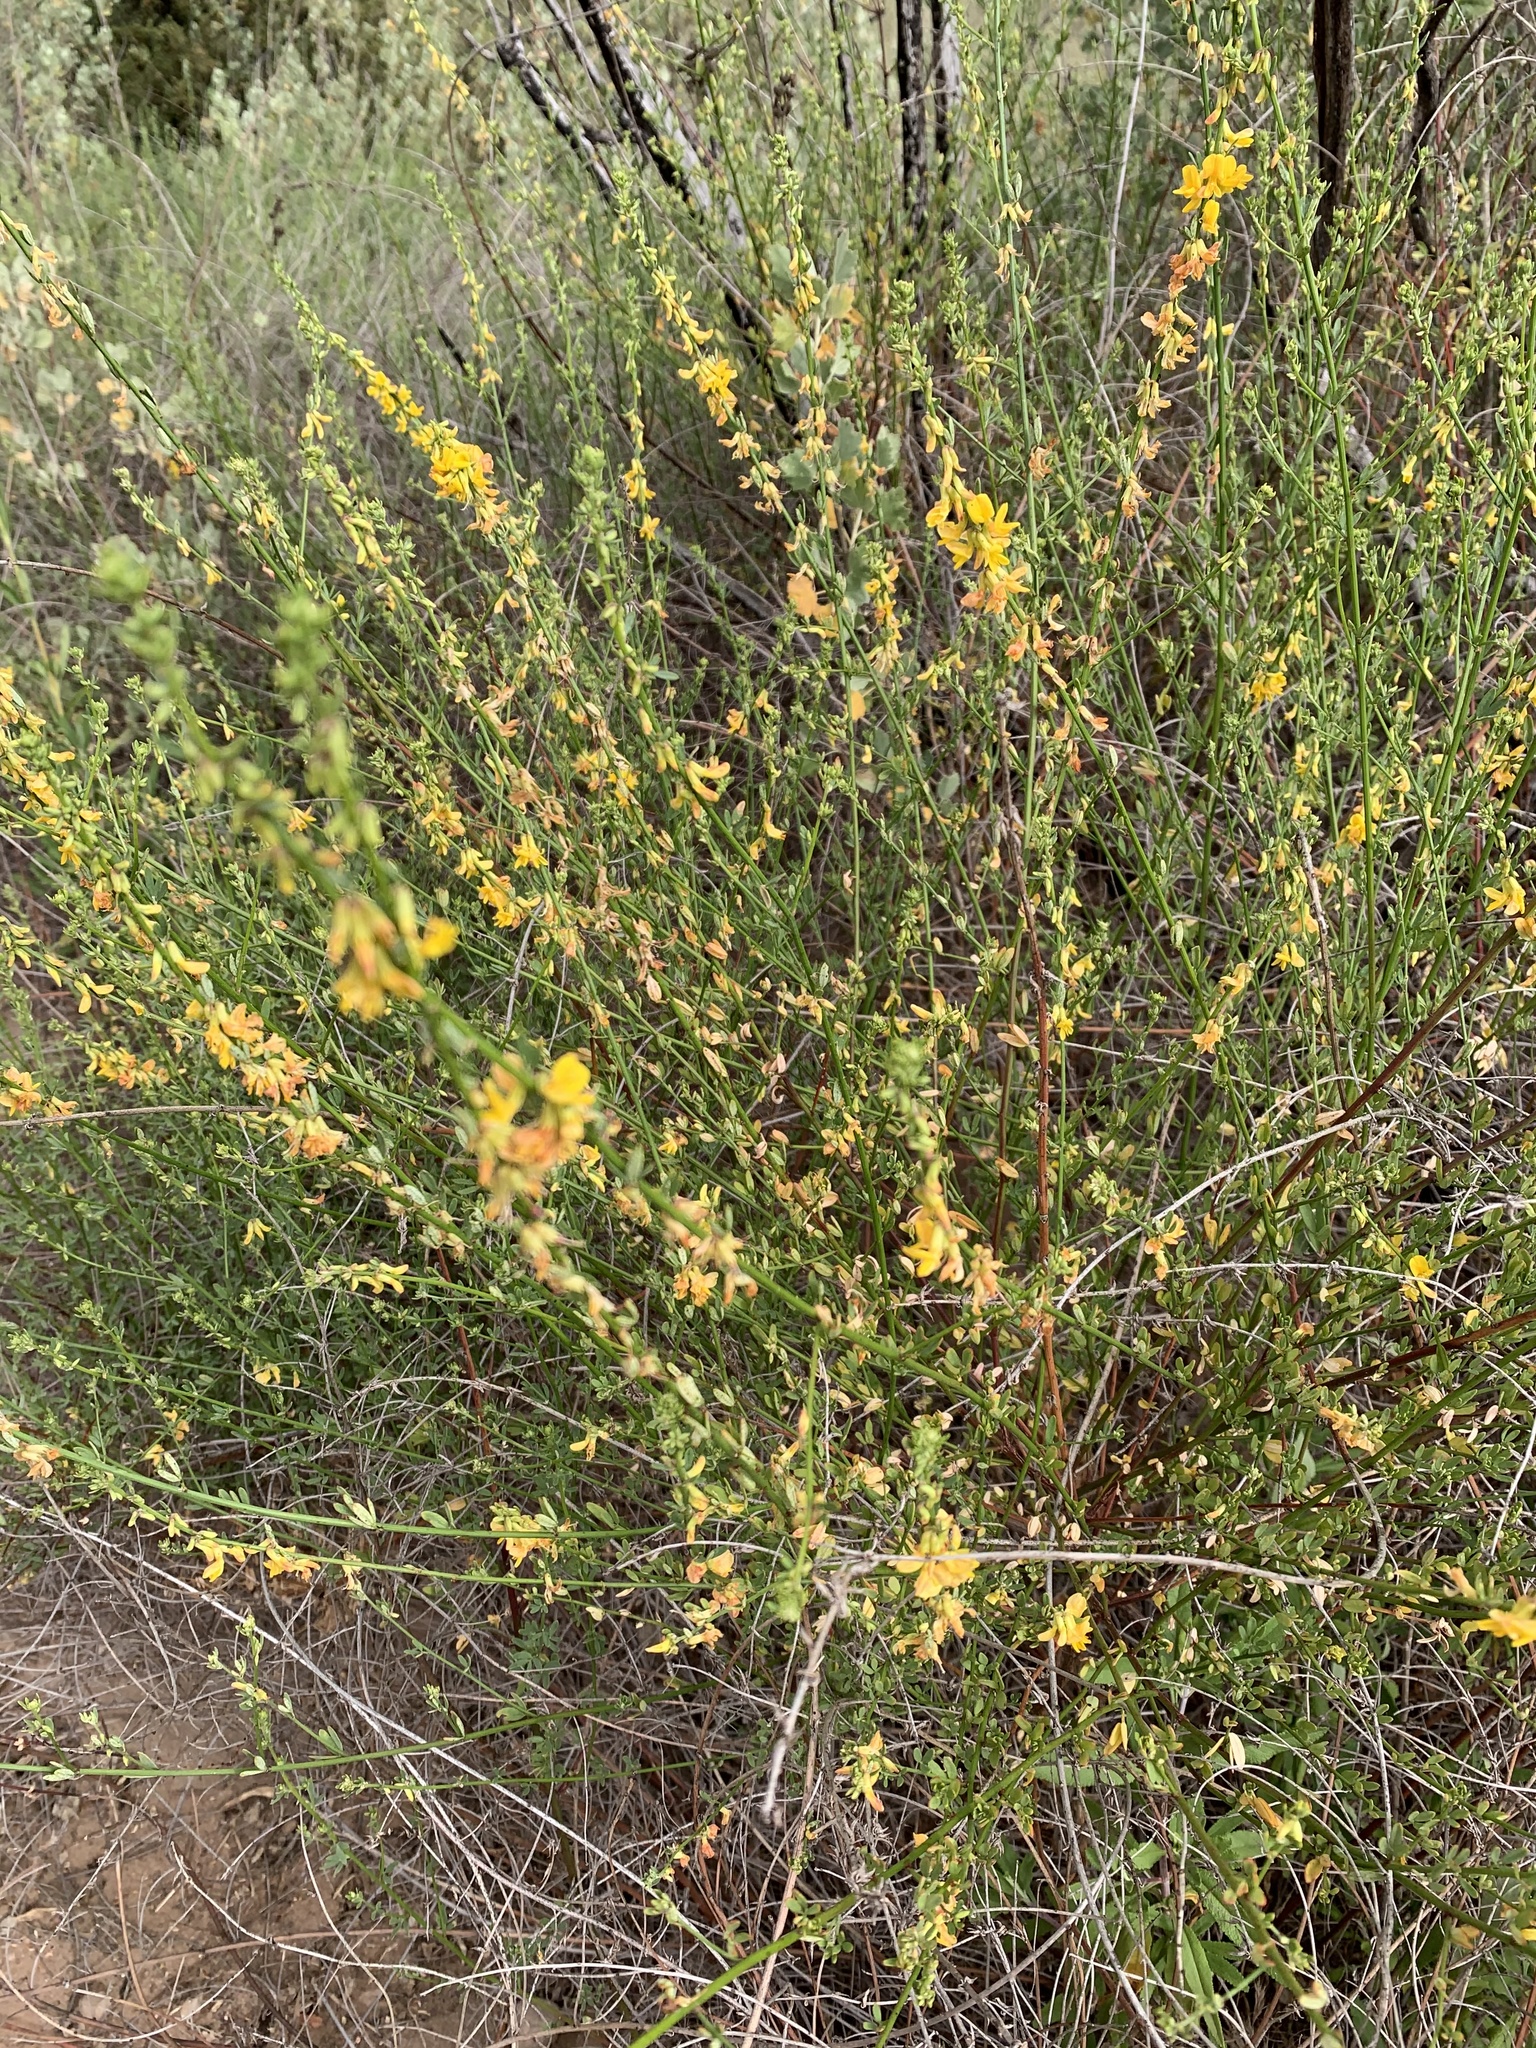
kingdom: Plantae
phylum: Tracheophyta
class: Magnoliopsida
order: Fabales
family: Fabaceae
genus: Acmispon
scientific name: Acmispon glaber
